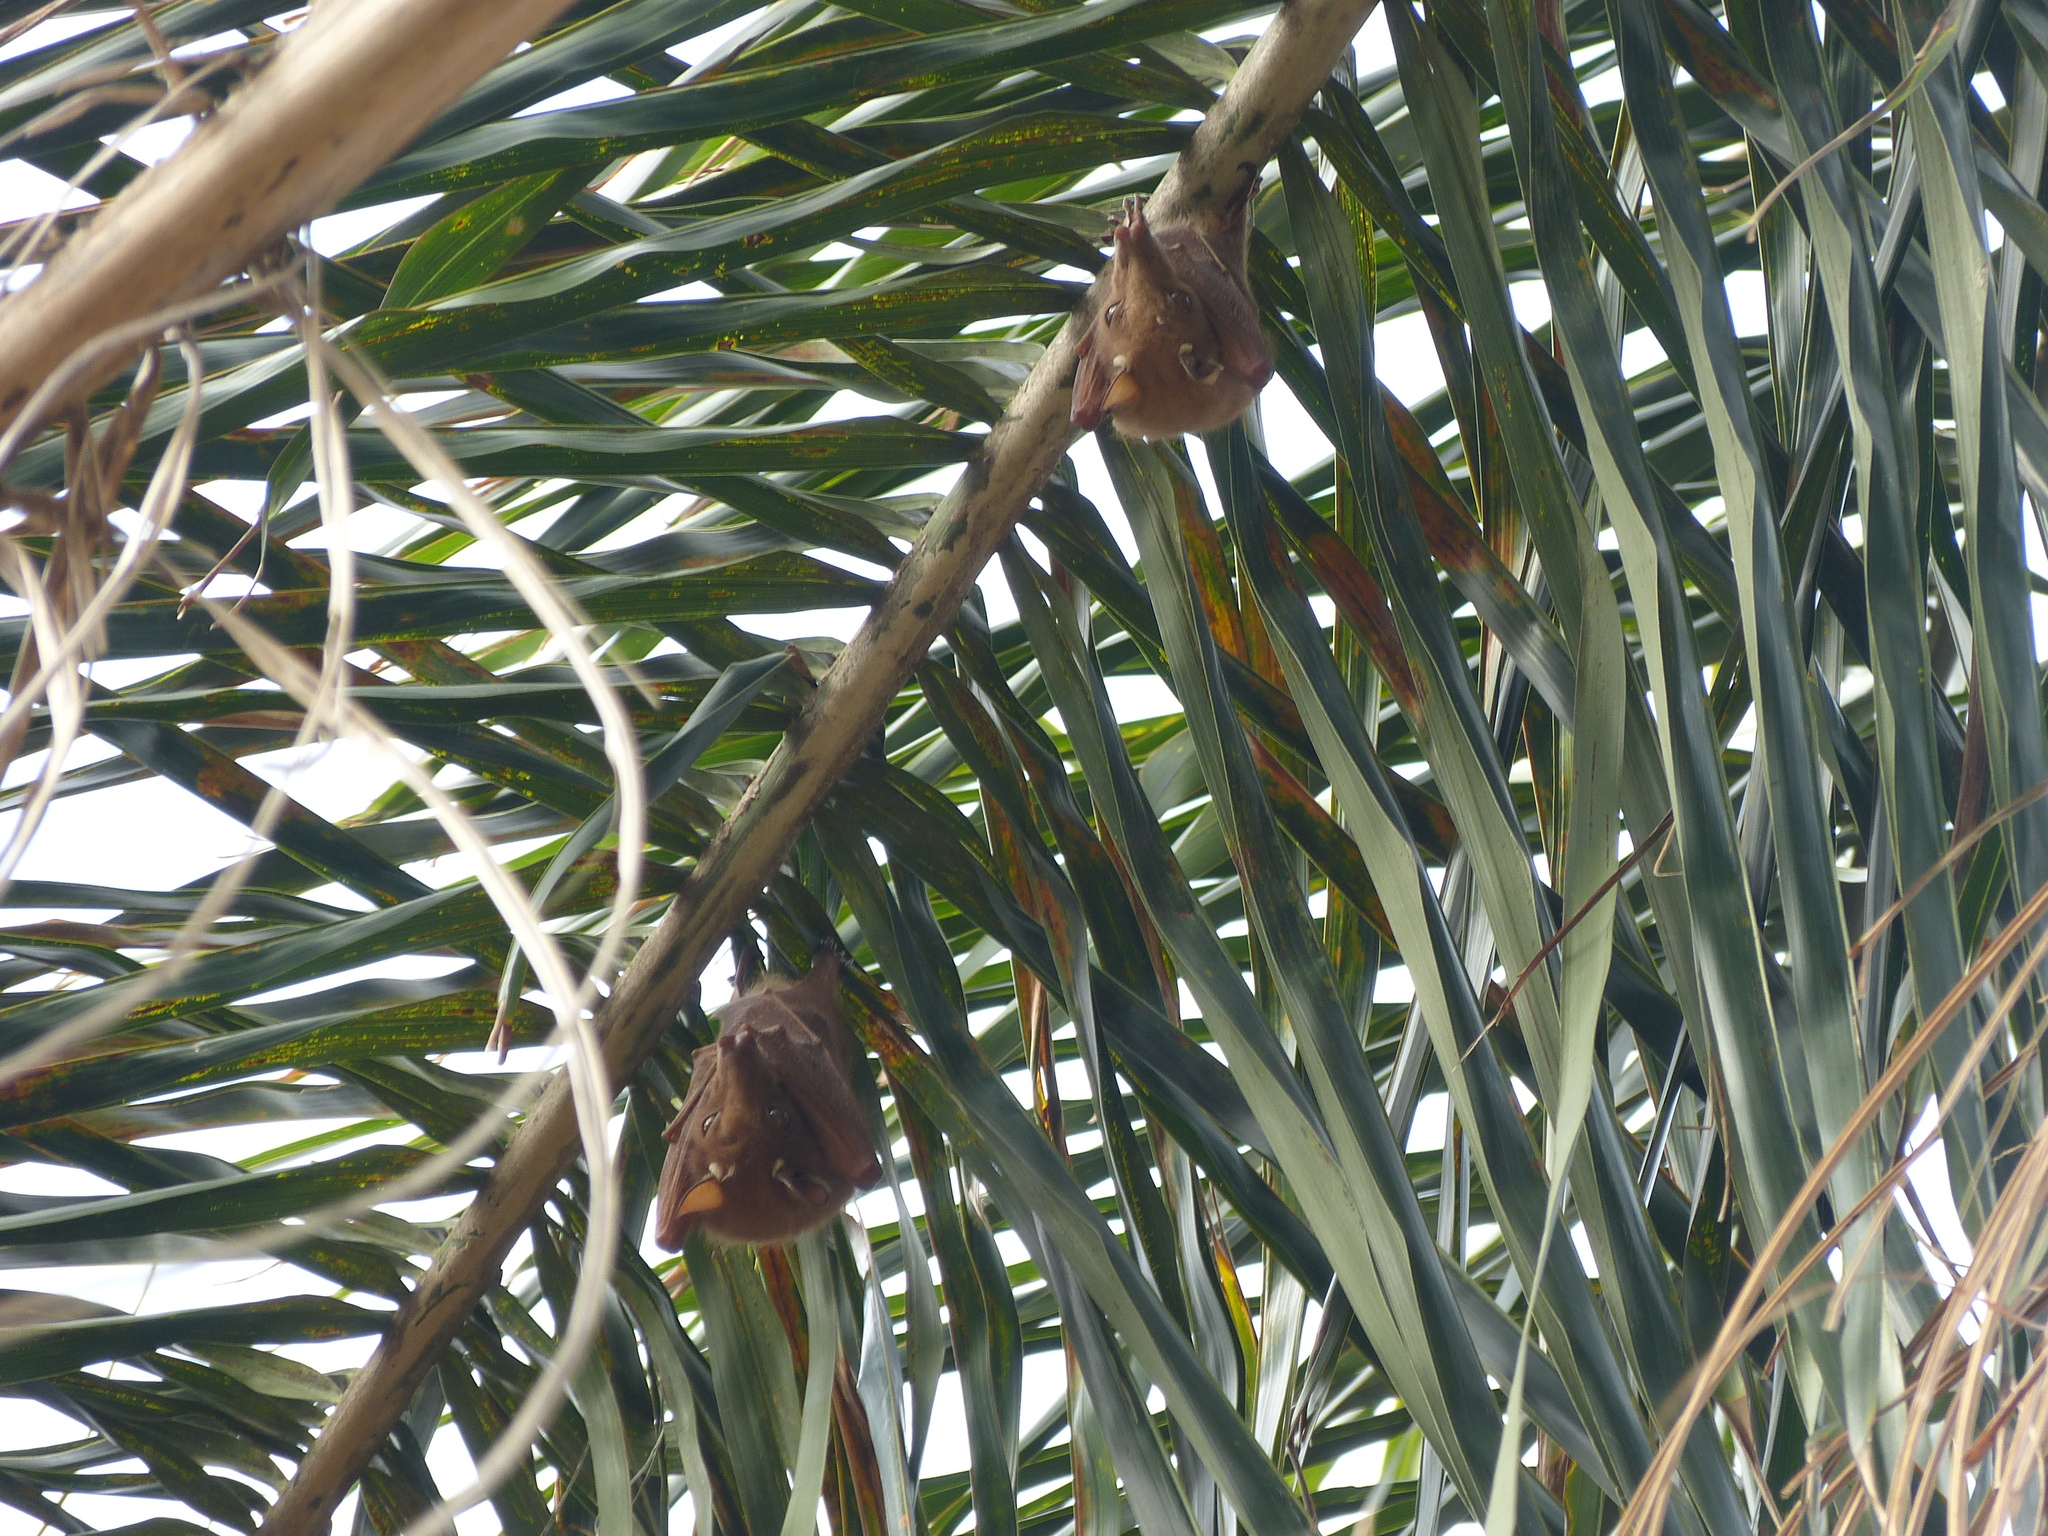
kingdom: Animalia
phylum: Chordata
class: Mammalia
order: Chiroptera
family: Pteropodidae
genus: Epomophorus
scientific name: Epomophorus wahlbergi
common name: Wahlberg's epauletted fruit bat
